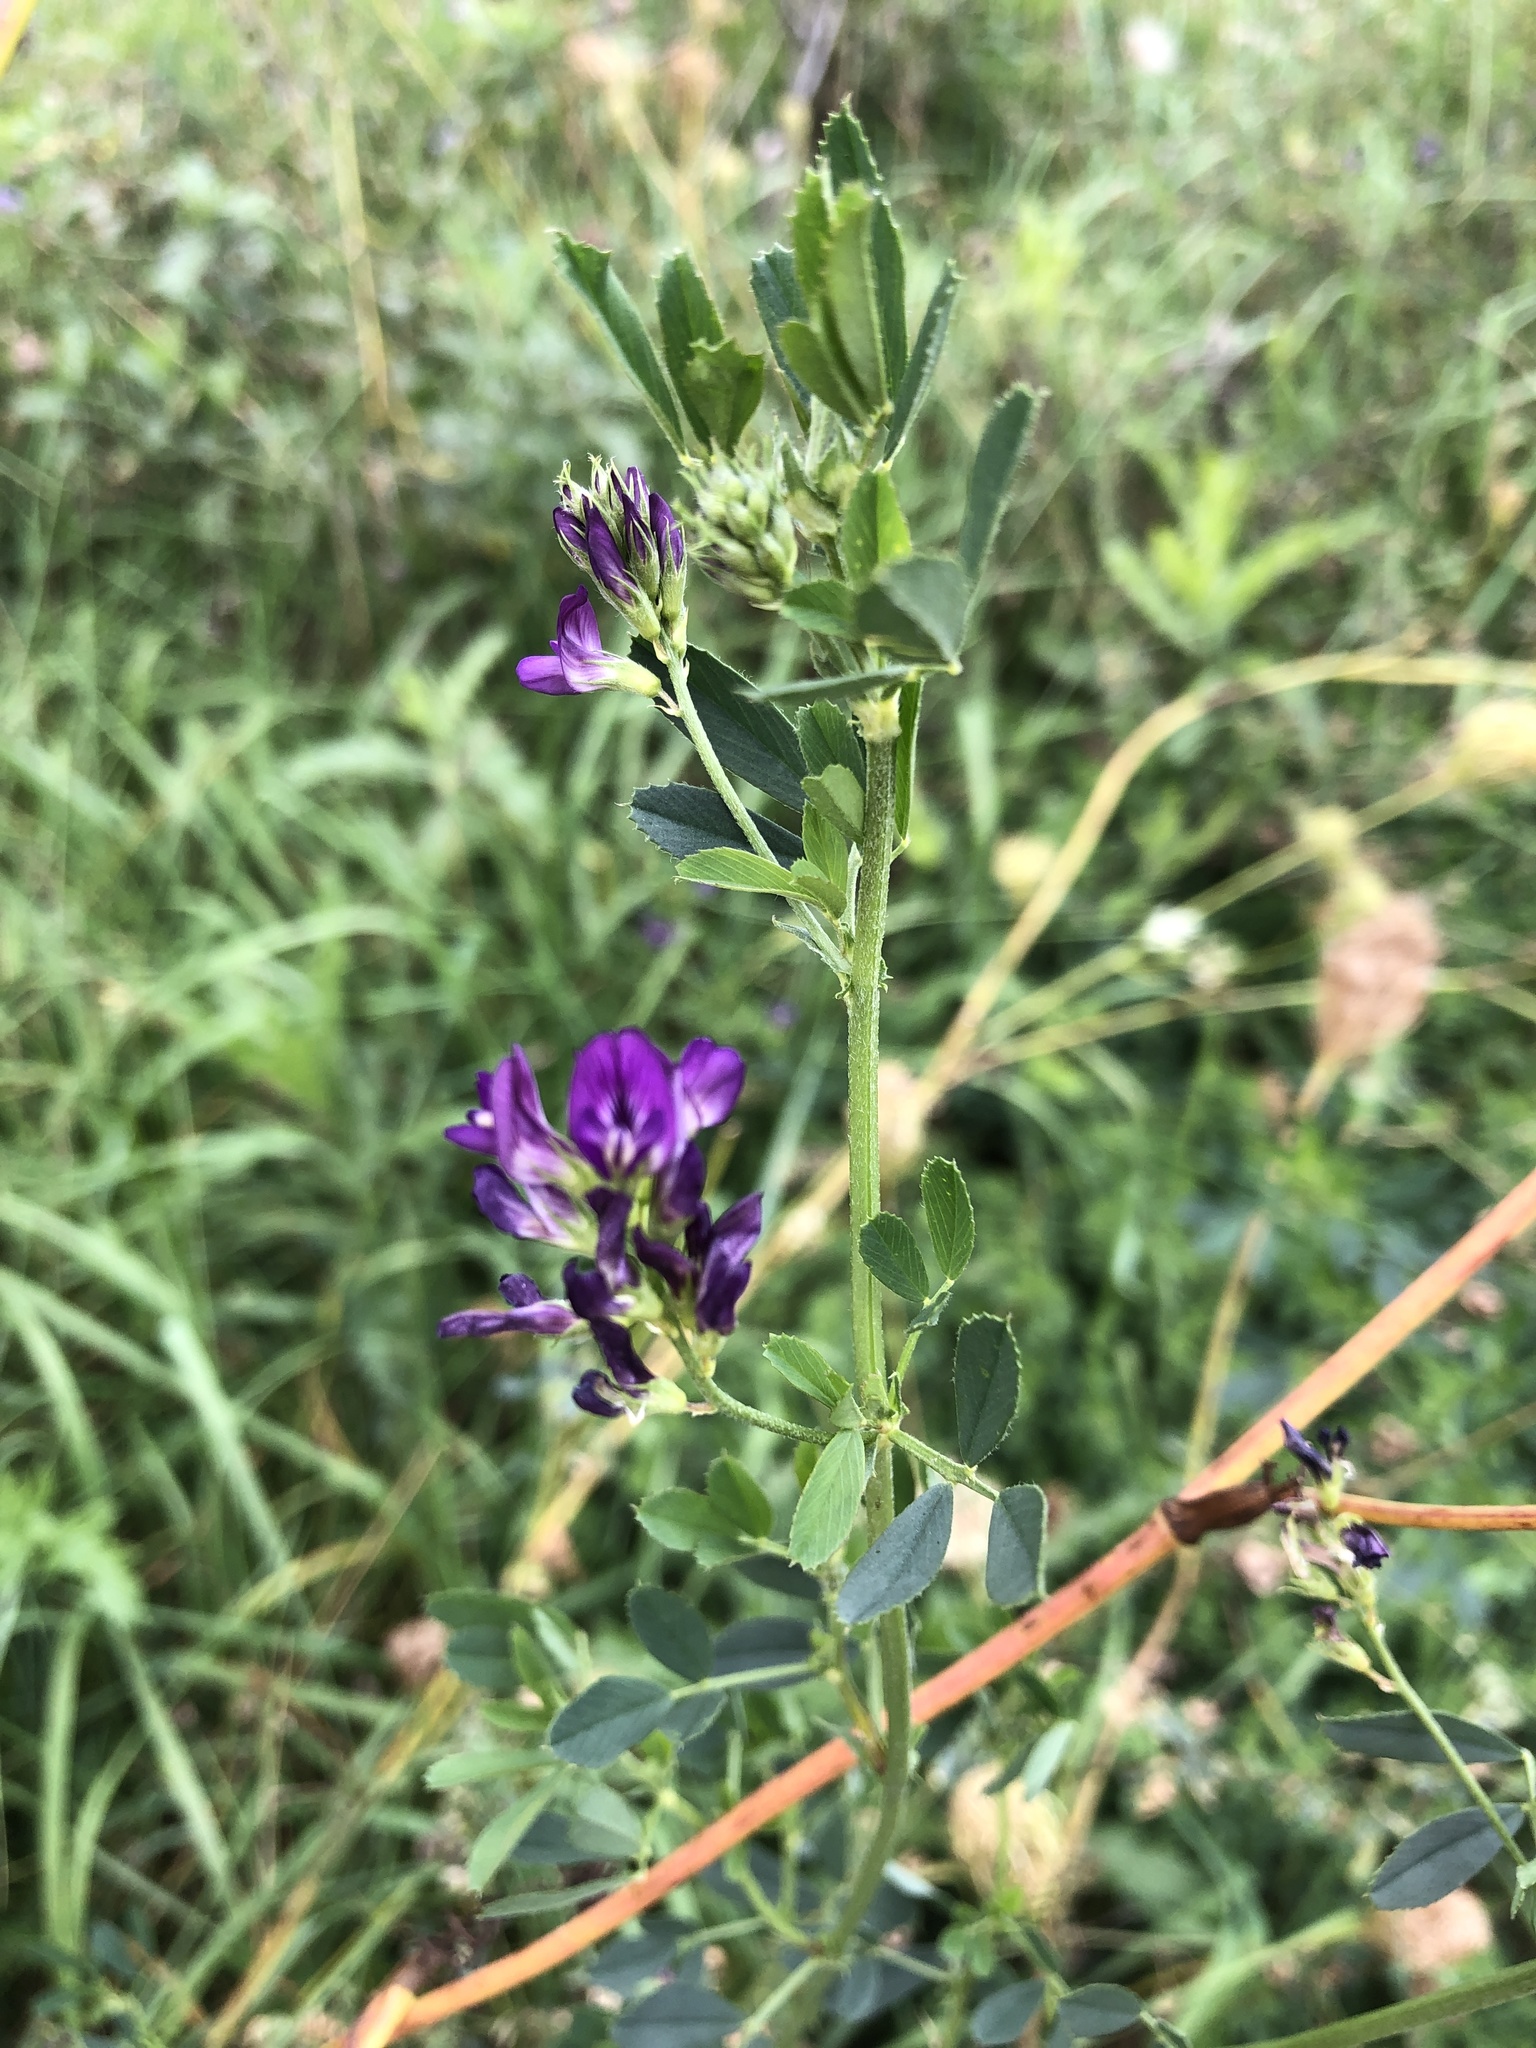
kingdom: Plantae
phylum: Tracheophyta
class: Magnoliopsida
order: Fabales
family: Fabaceae
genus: Medicago
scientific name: Medicago sativa
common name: Alfalfa
